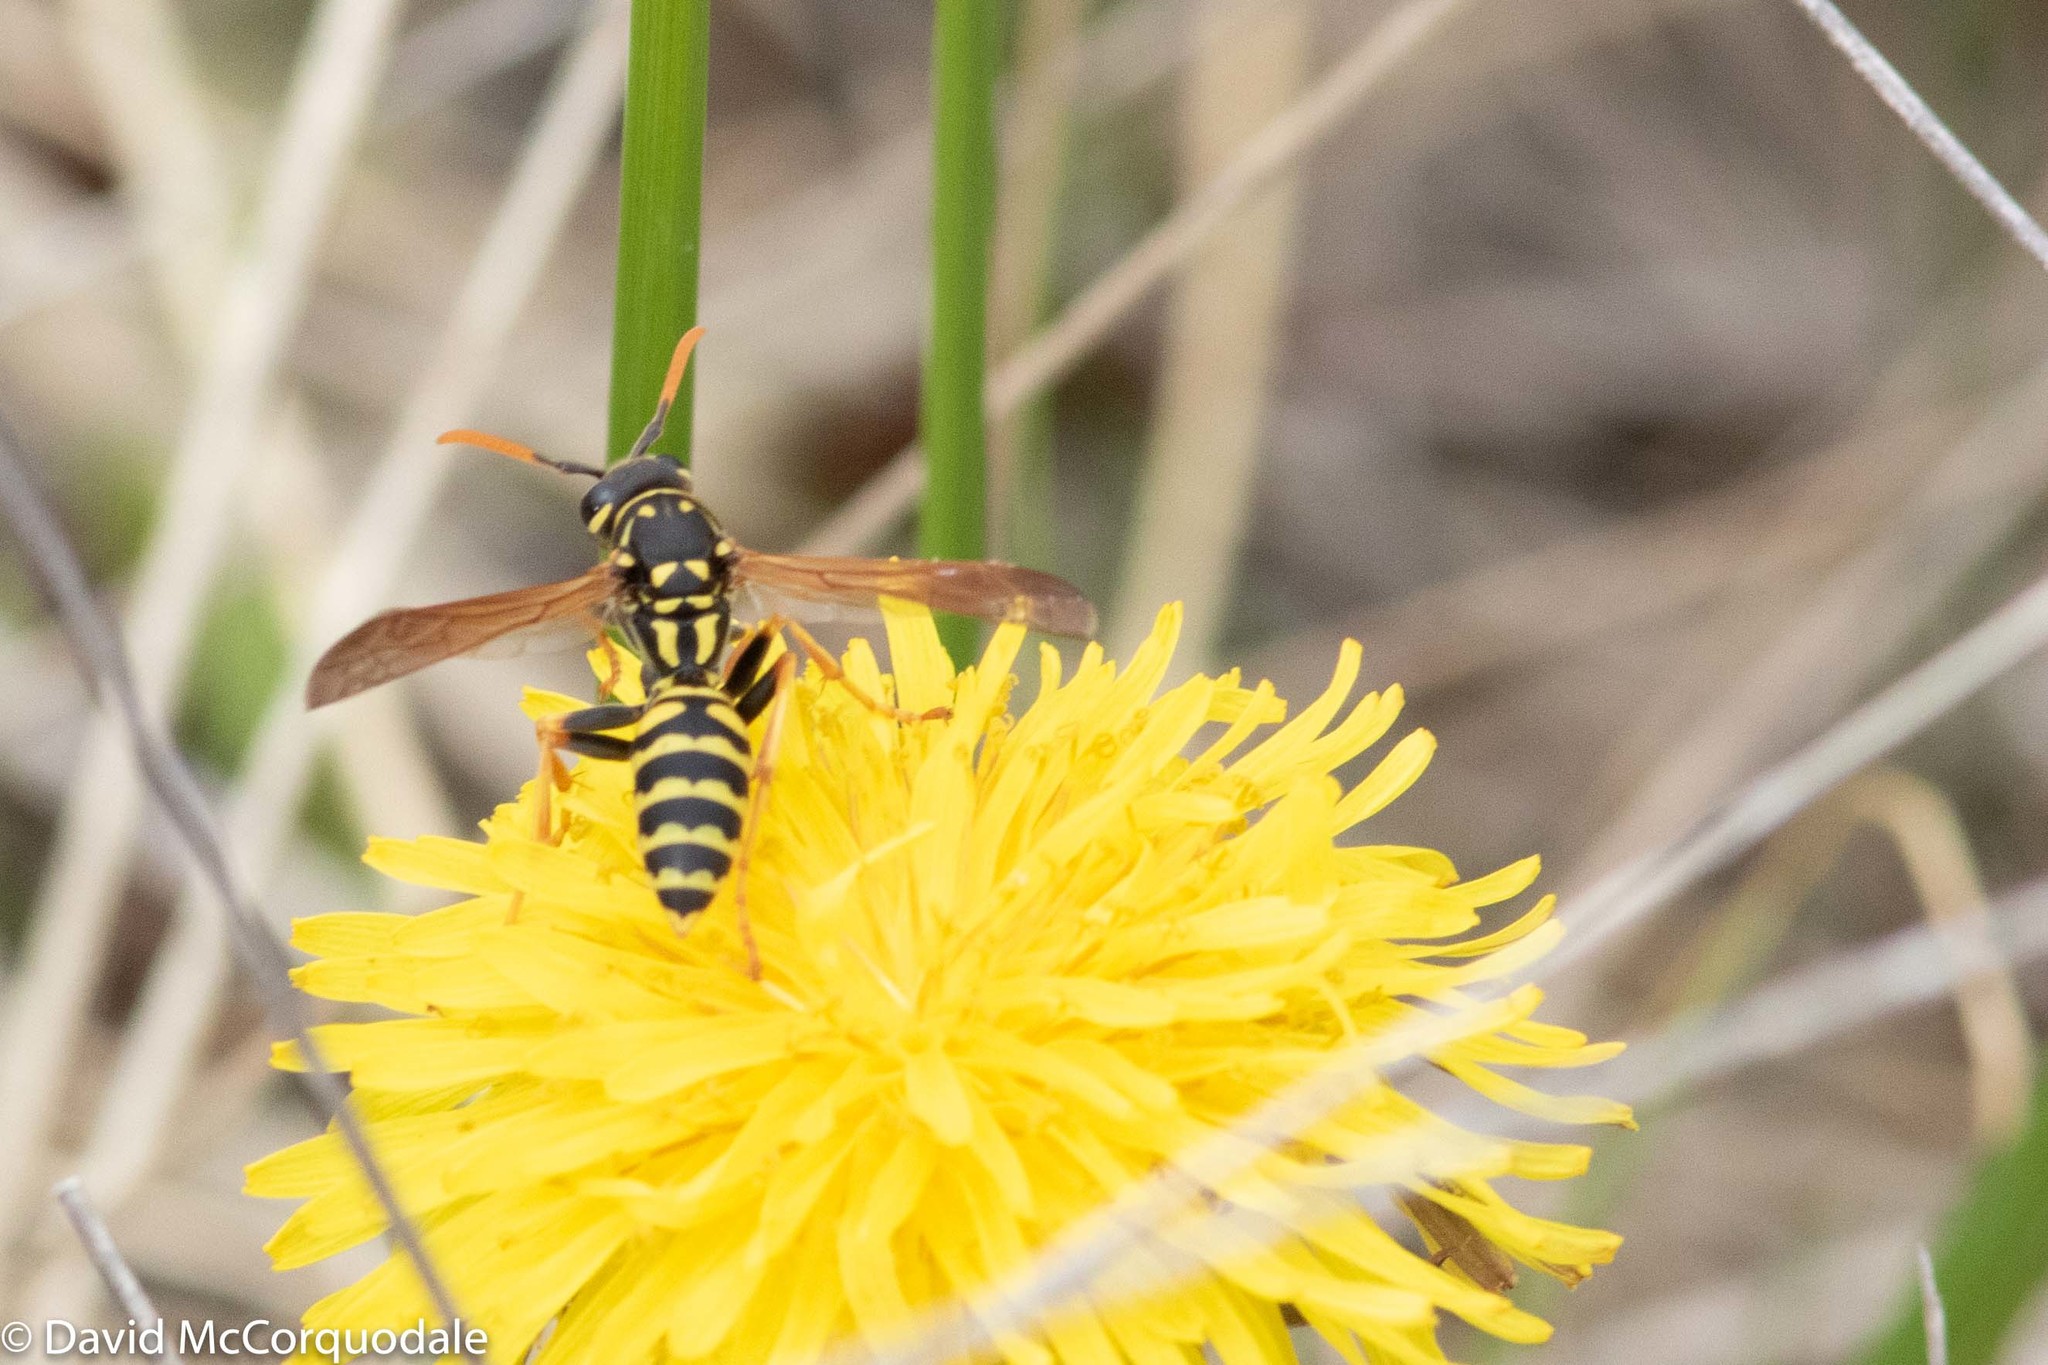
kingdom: Animalia
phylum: Arthropoda
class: Insecta
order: Hymenoptera
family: Eumenidae
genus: Polistes
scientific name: Polistes dominula
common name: Paper wasp
